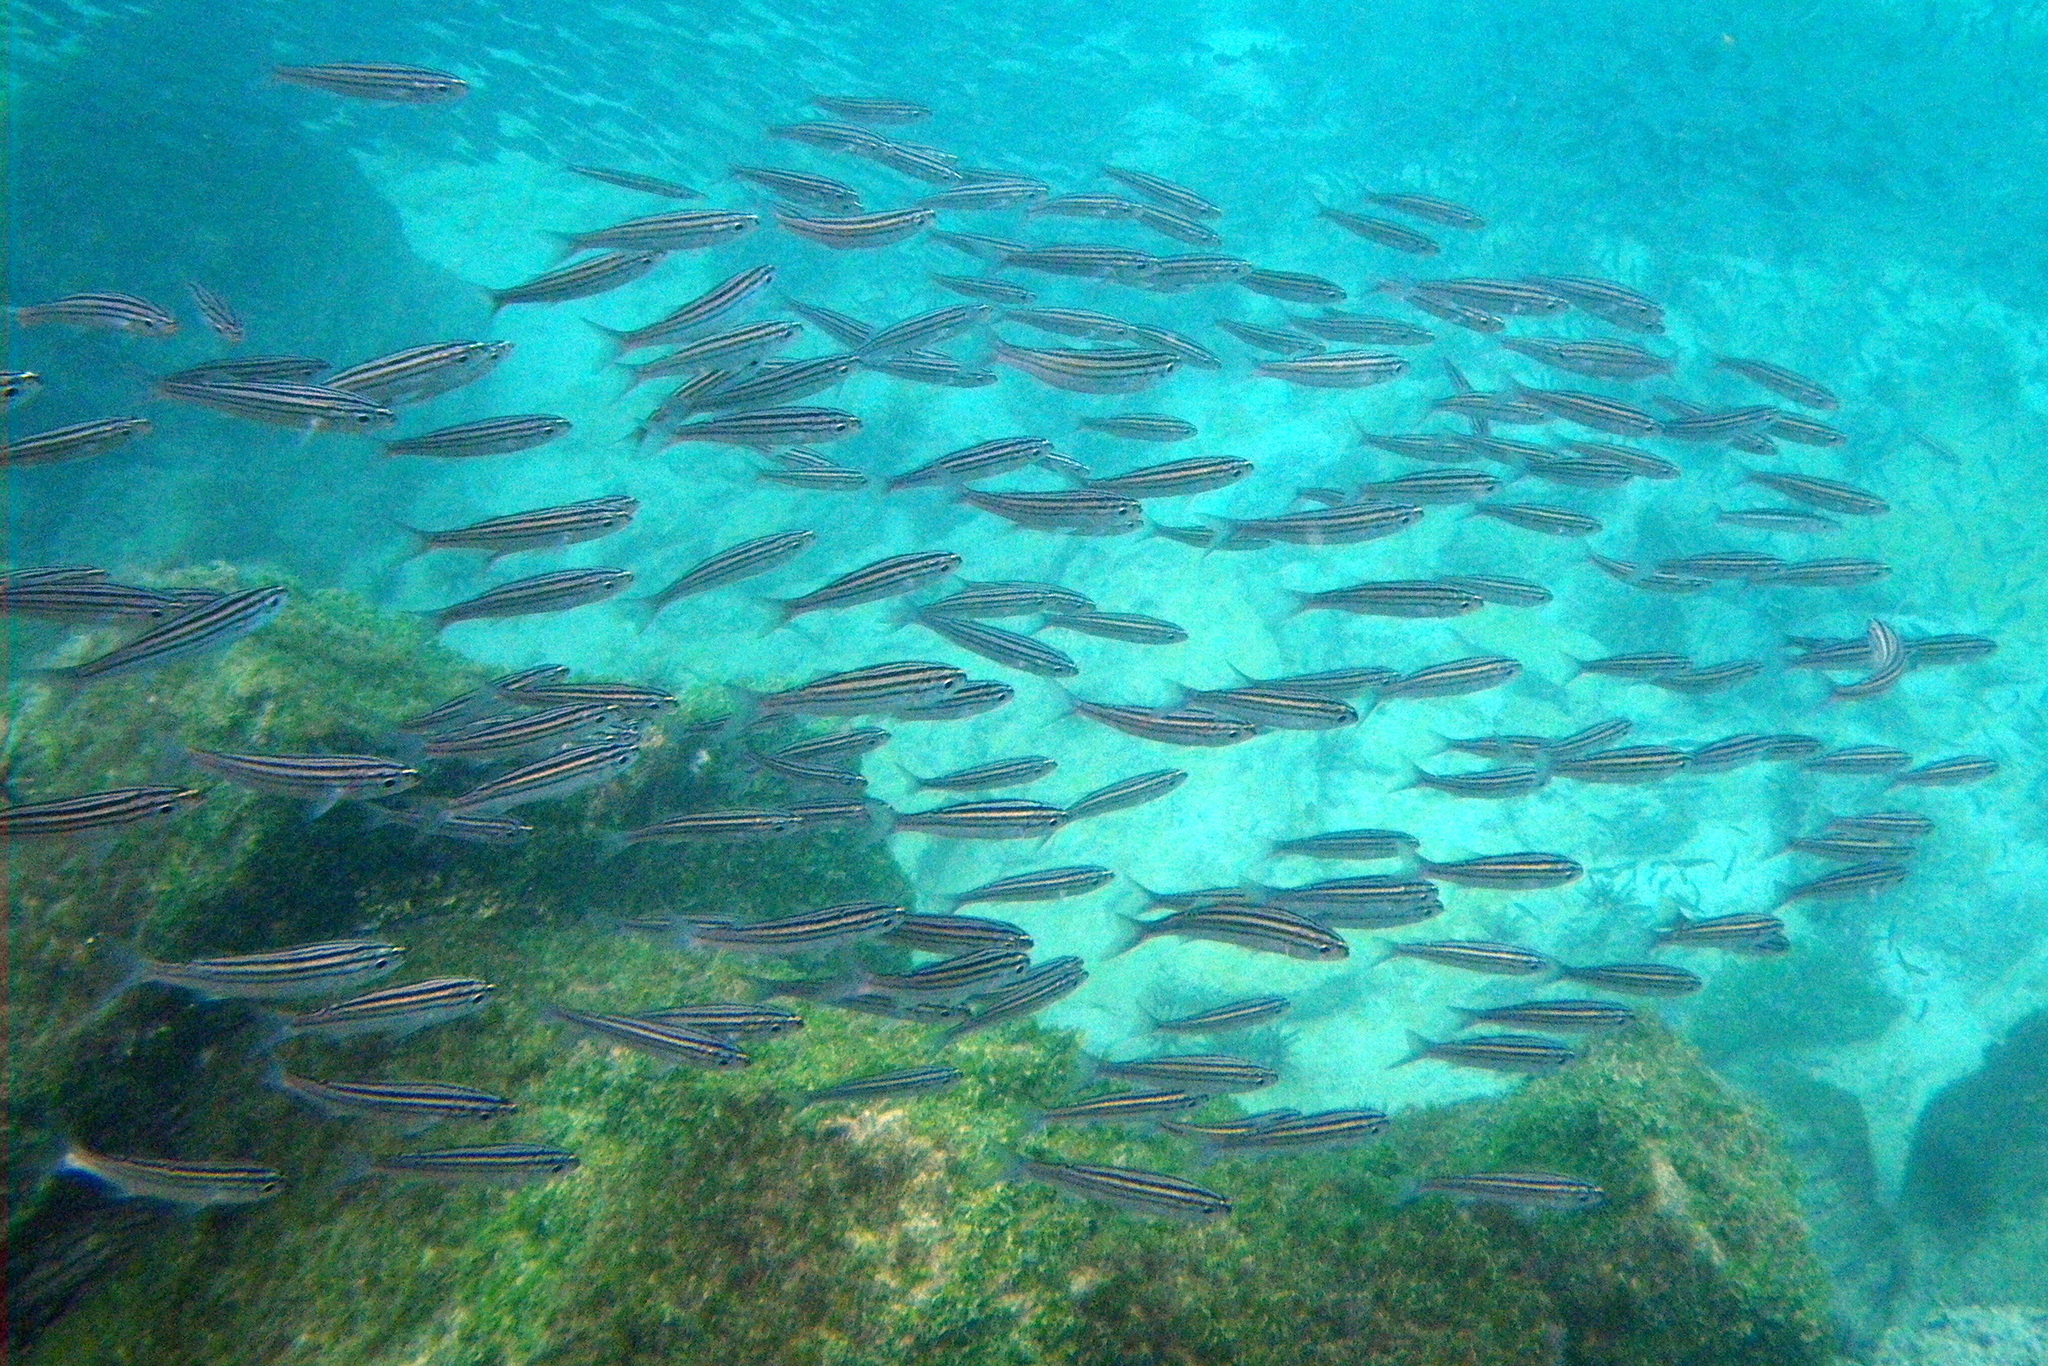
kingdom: Animalia
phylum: Chordata
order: Perciformes
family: Haemulidae
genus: Xenocys
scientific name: Xenocys jessiae
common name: Black-striped salema
